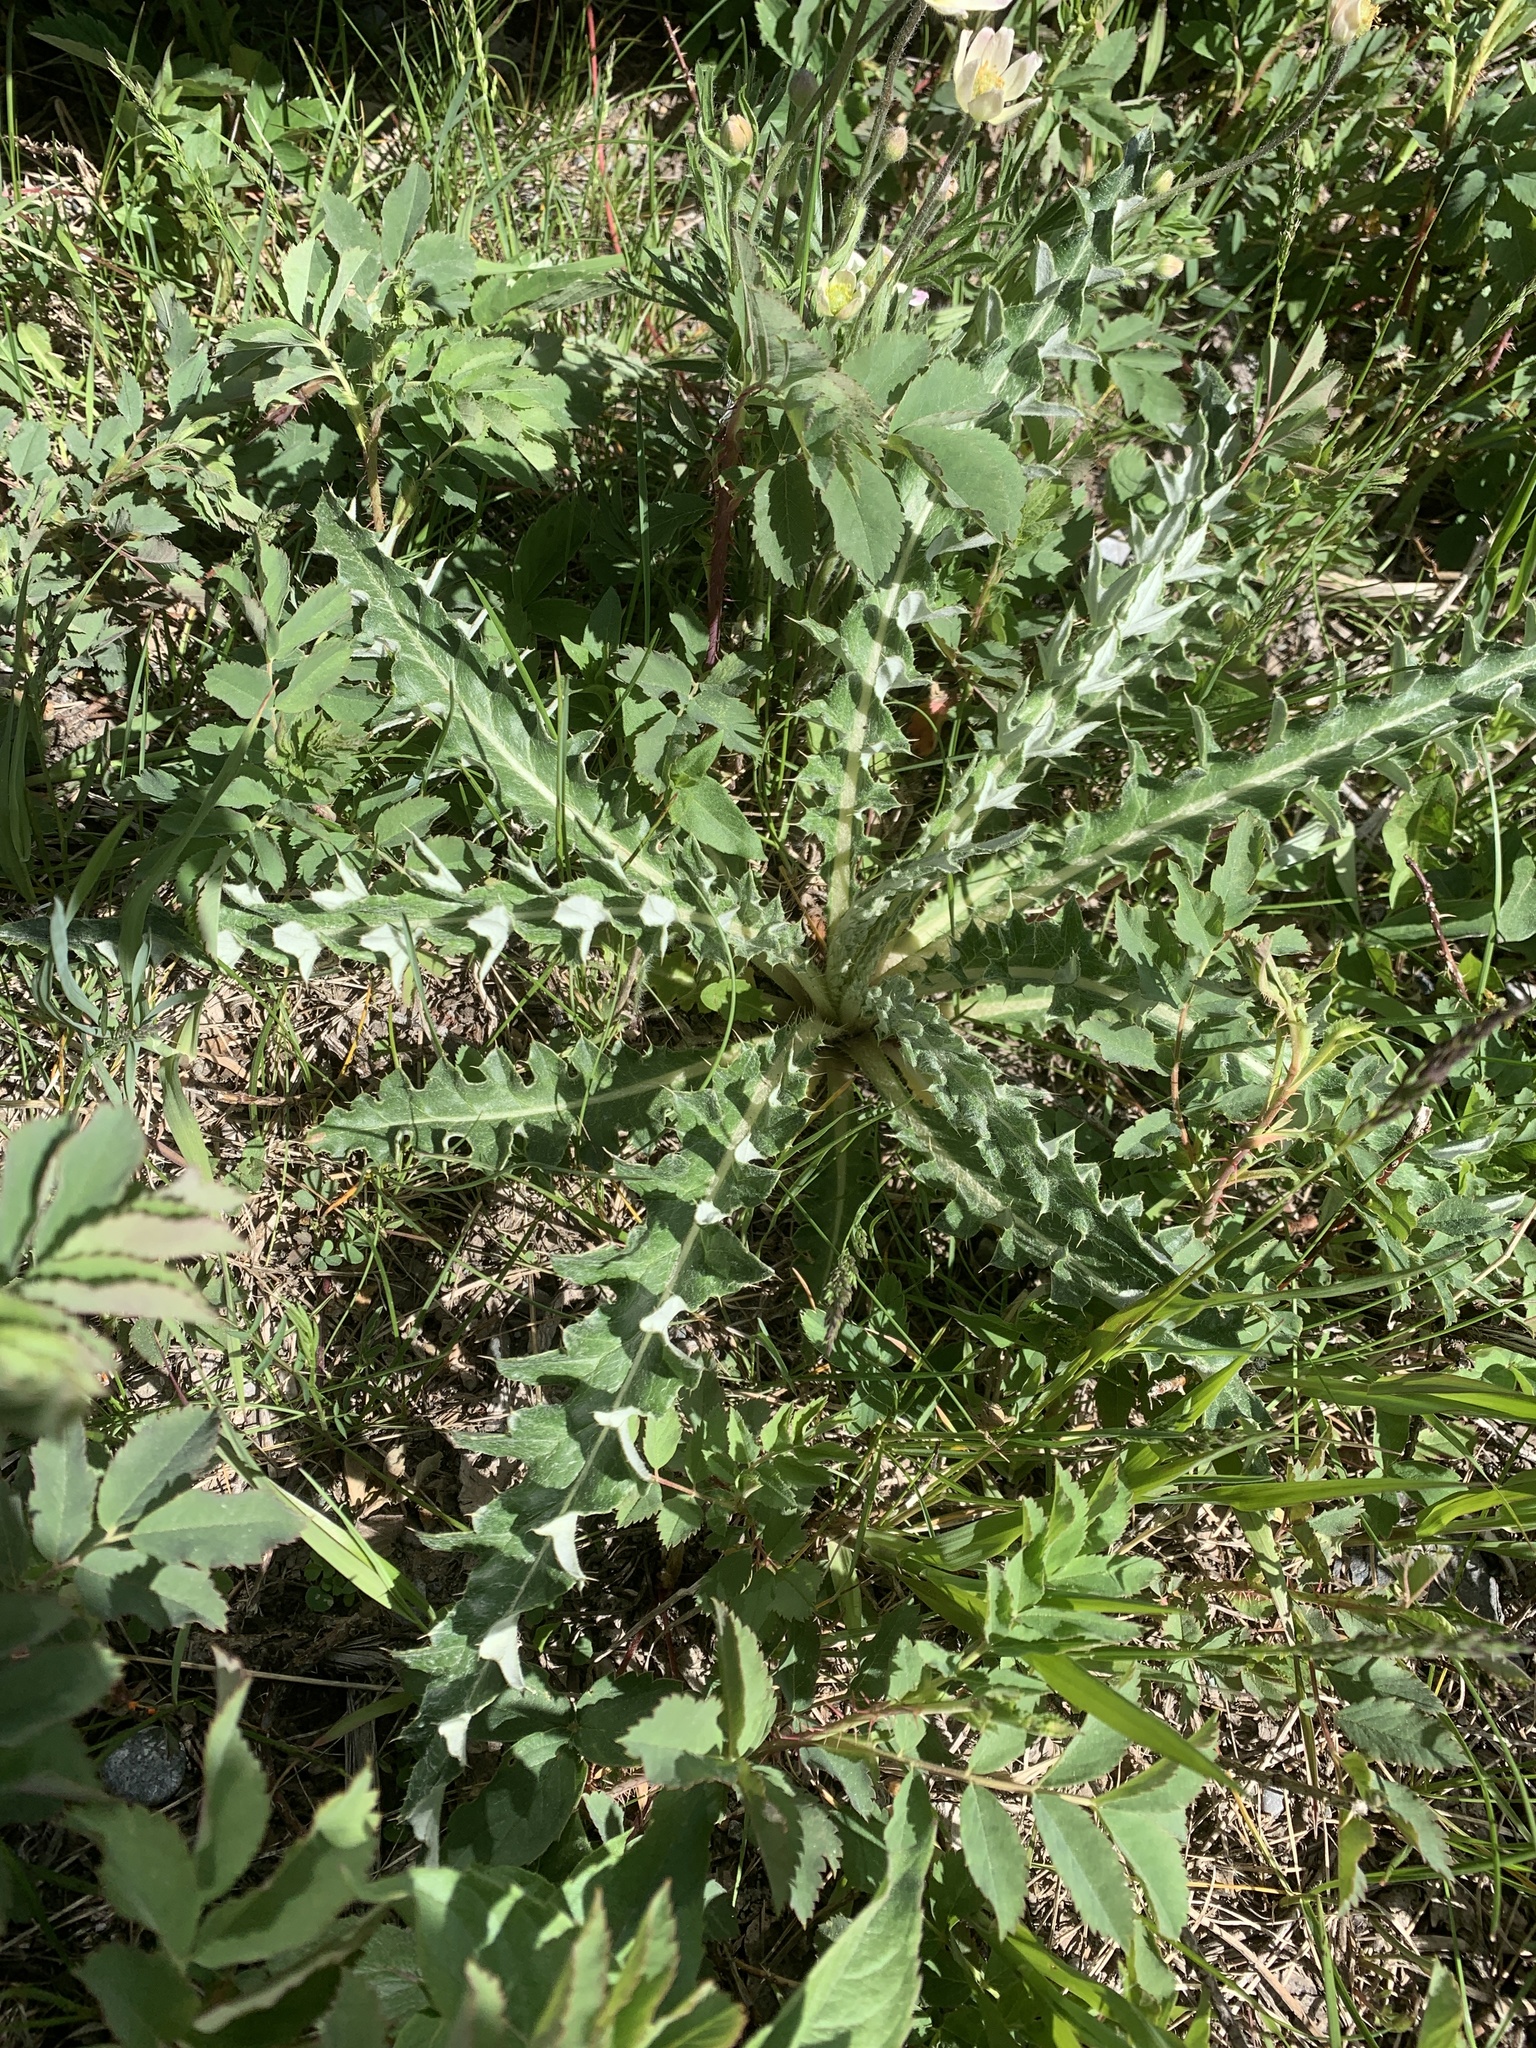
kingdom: Plantae
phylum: Tracheophyta
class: Magnoliopsida
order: Asterales
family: Asteraceae
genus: Cirsium
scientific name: Cirsium undulatum
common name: Pasture thistle
